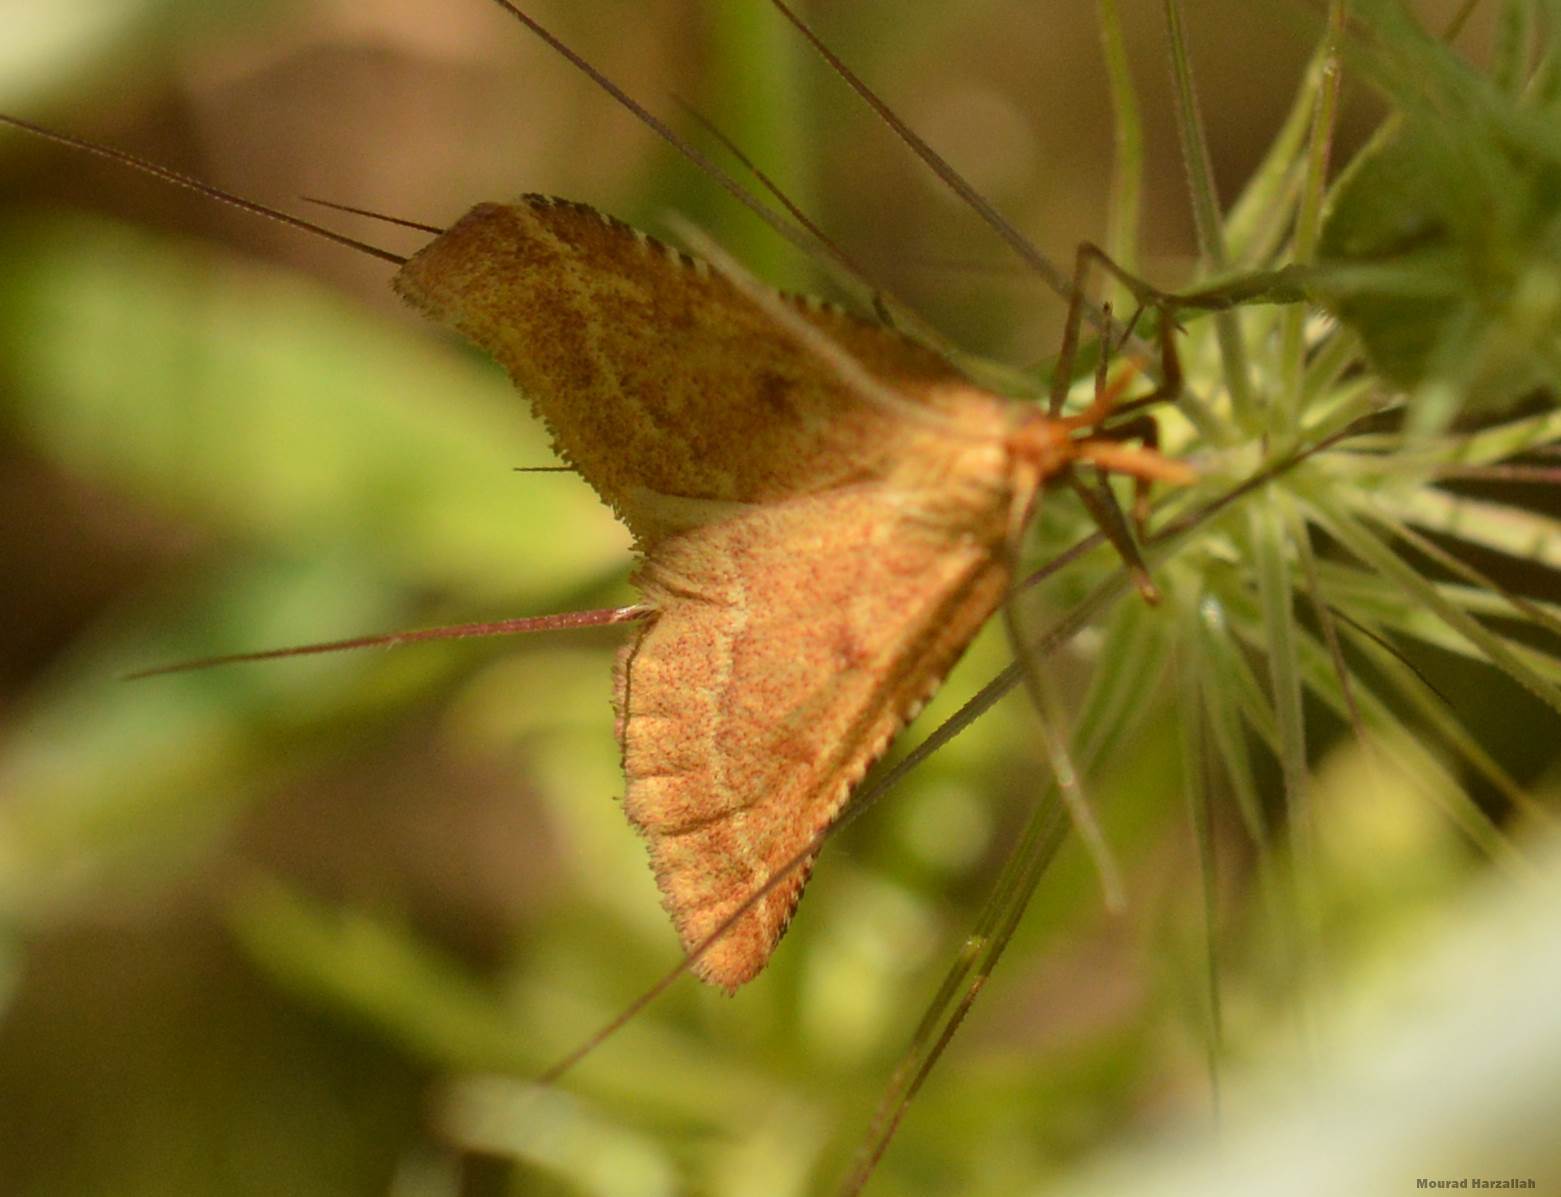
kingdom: Animalia
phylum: Arthropoda
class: Insecta
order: Lepidoptera
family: Pyralidae
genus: Synaphe
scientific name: Synaphe punctalis
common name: Long-legged tabby
